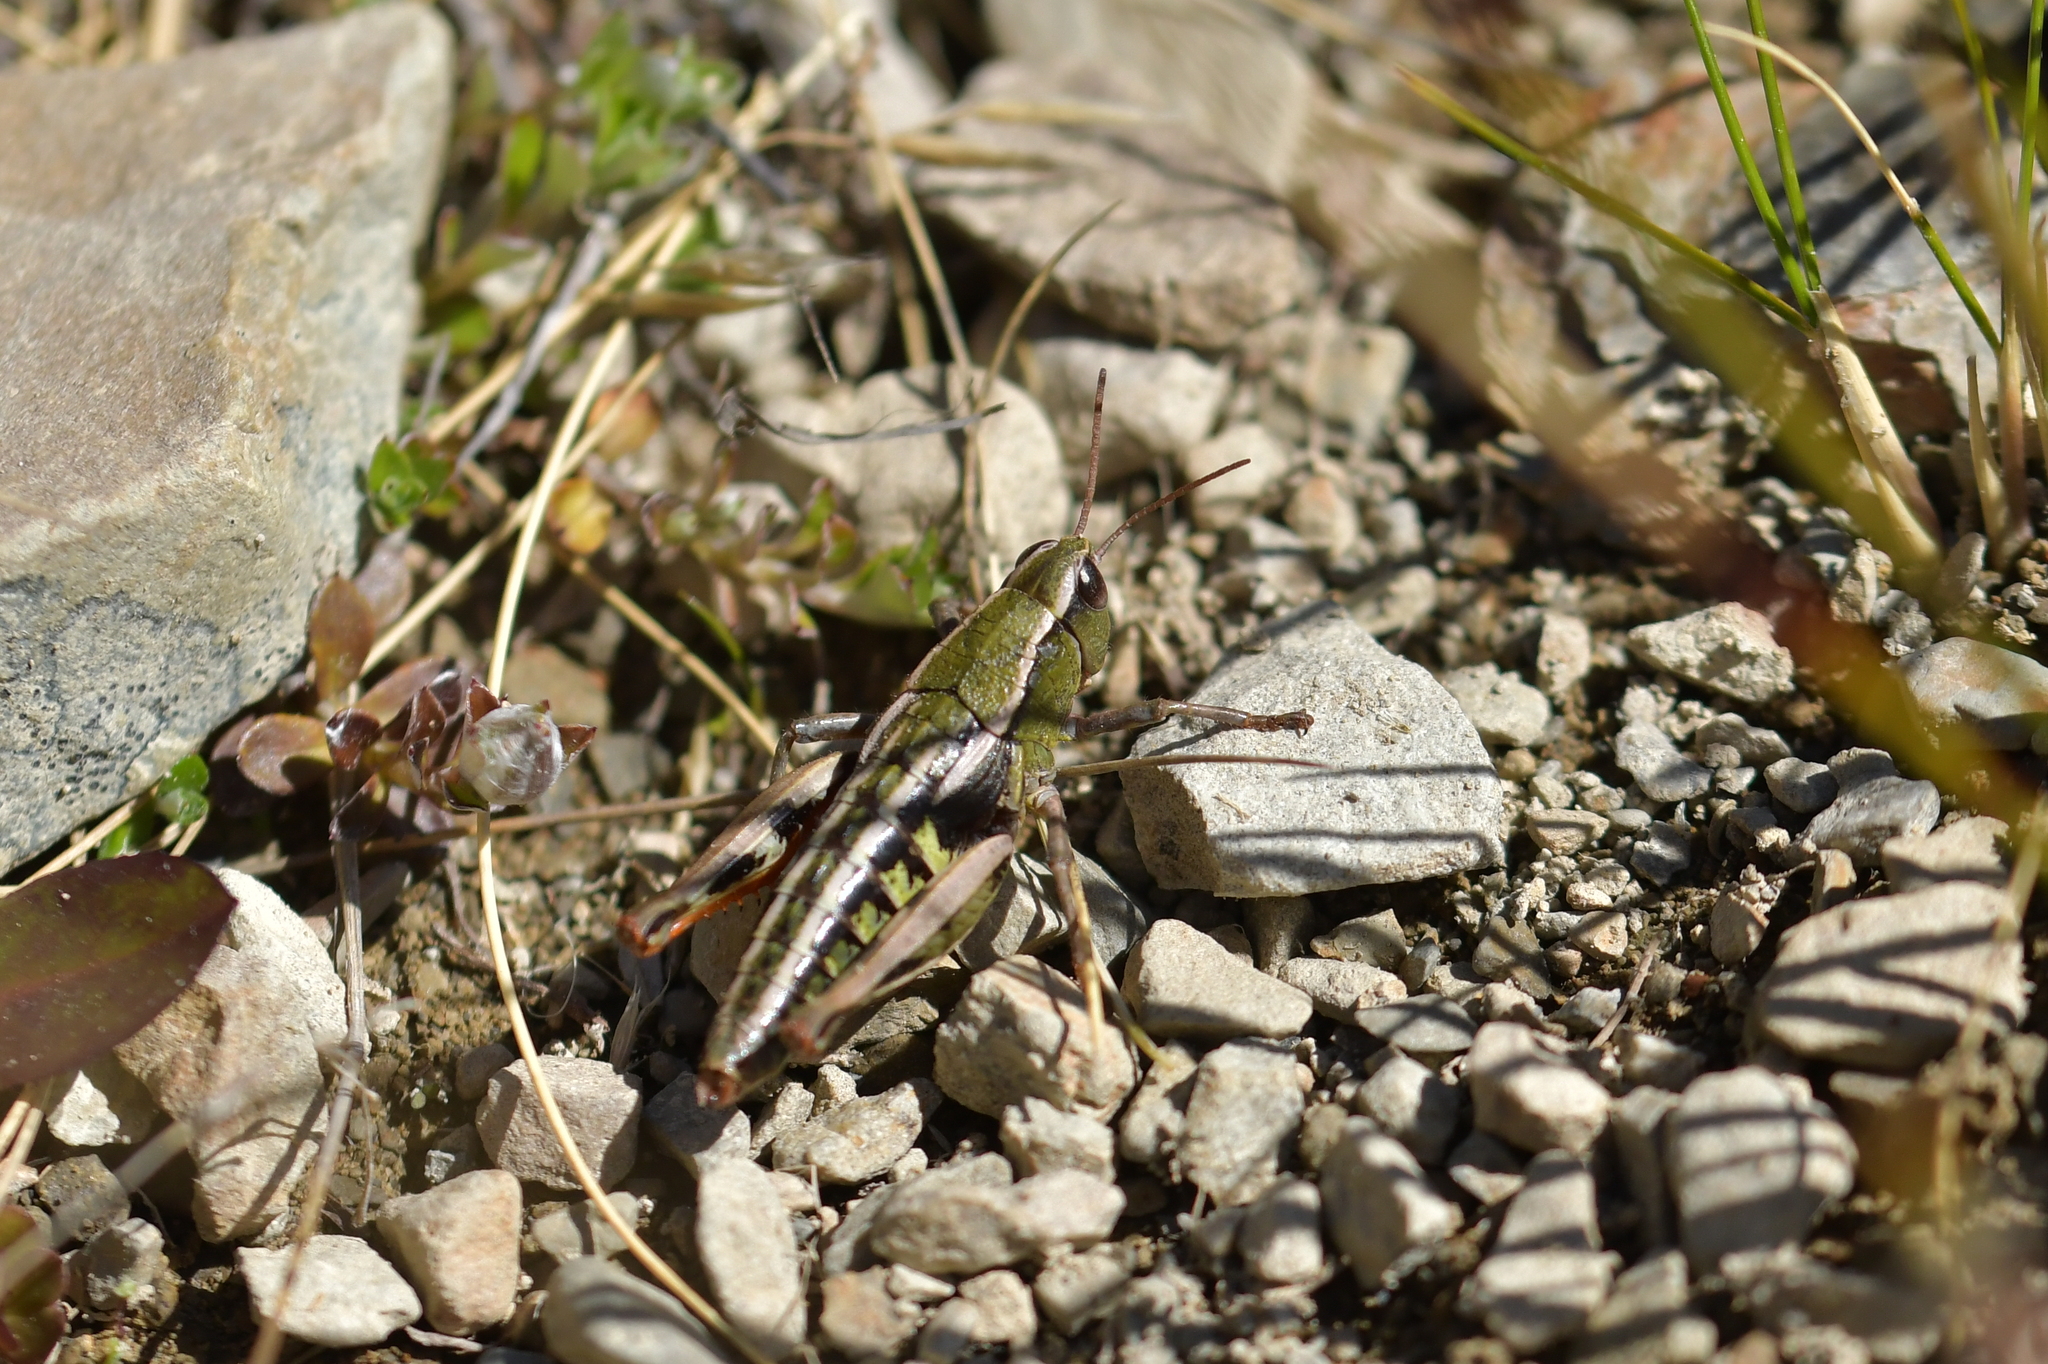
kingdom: Animalia
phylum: Arthropoda
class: Insecta
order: Orthoptera
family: Acrididae
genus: Sigaus
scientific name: Sigaus
